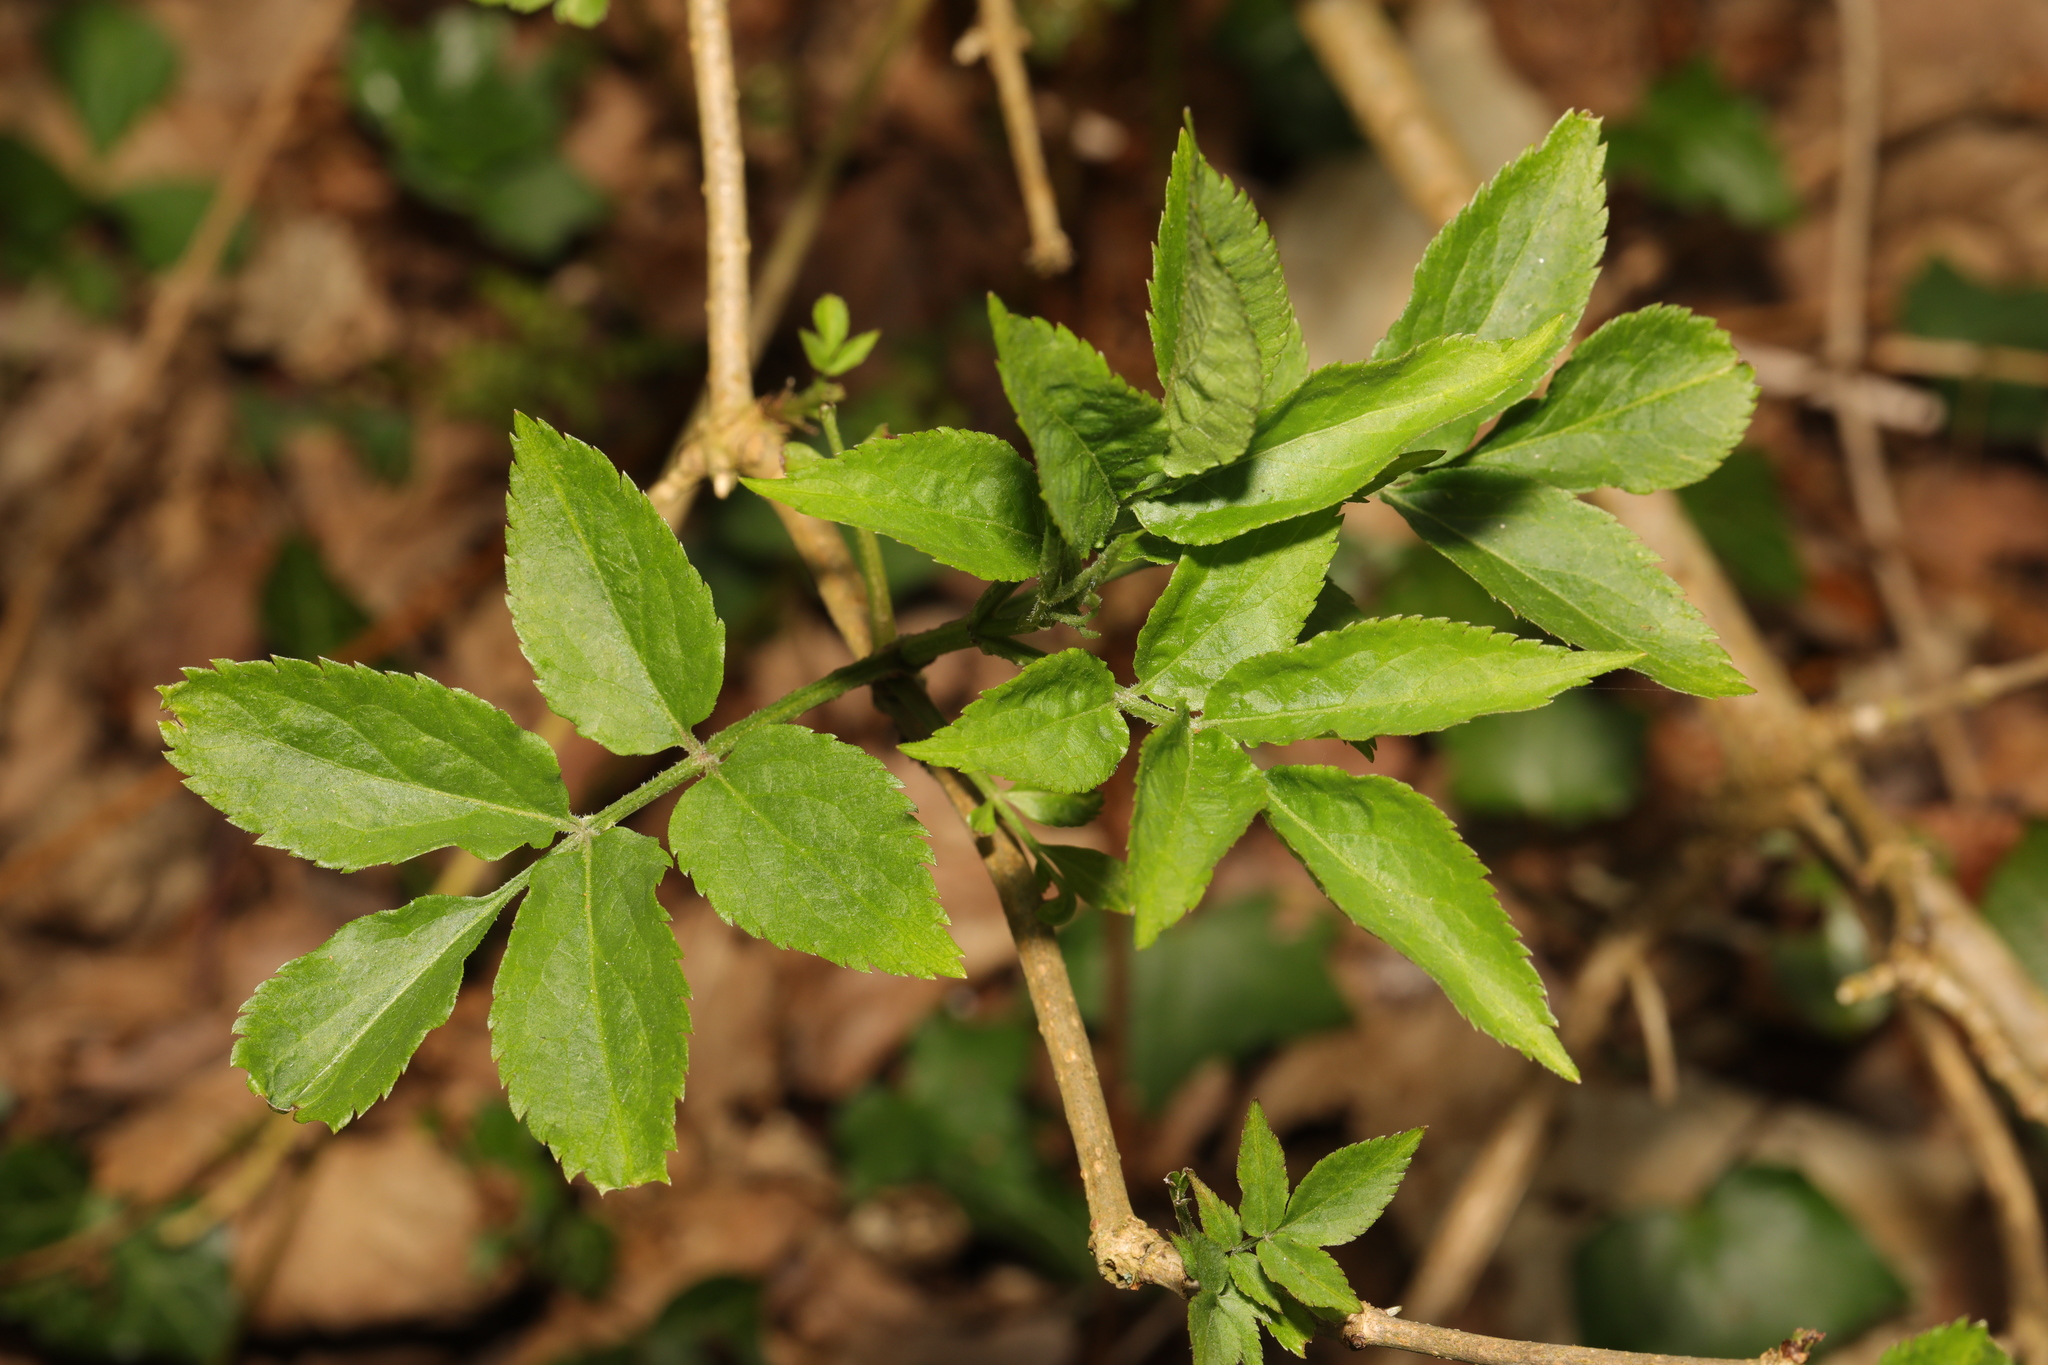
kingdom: Plantae
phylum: Tracheophyta
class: Magnoliopsida
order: Dipsacales
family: Viburnaceae
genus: Sambucus
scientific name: Sambucus nigra
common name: Elder
